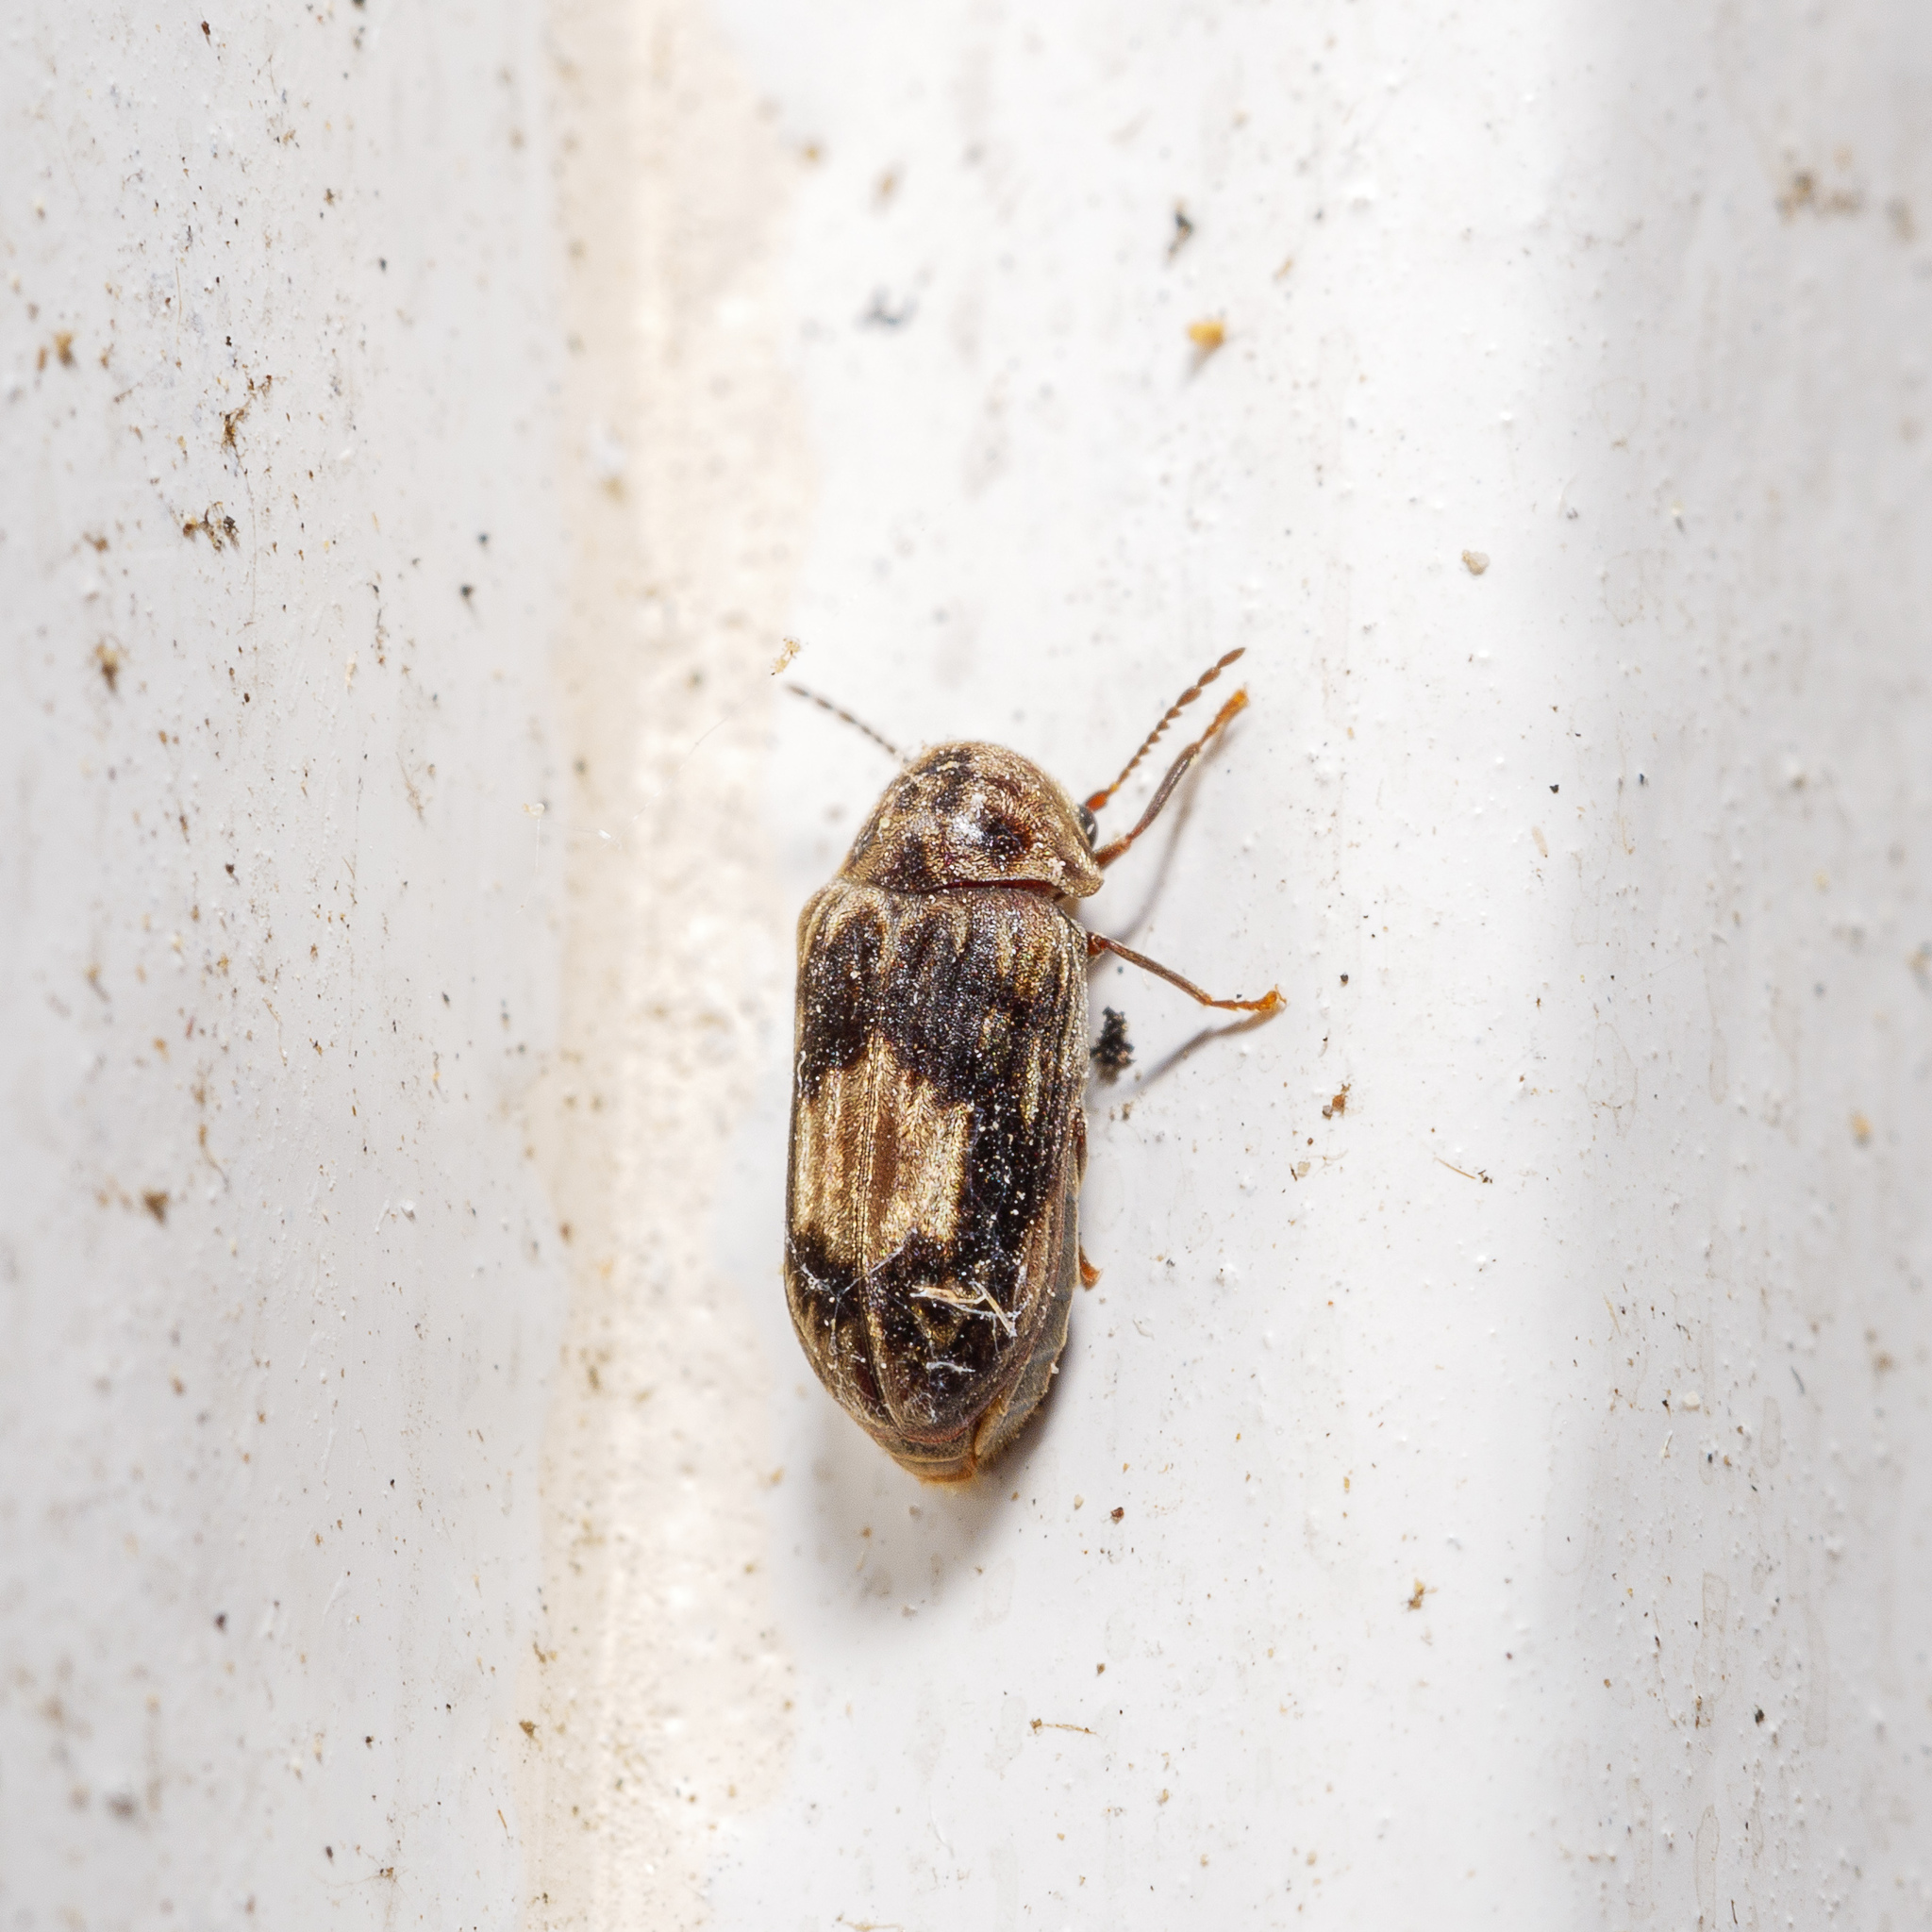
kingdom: Animalia
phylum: Arthropoda
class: Insecta
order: Coleoptera
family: Ptinidae
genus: Leanobium
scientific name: Leanobium
